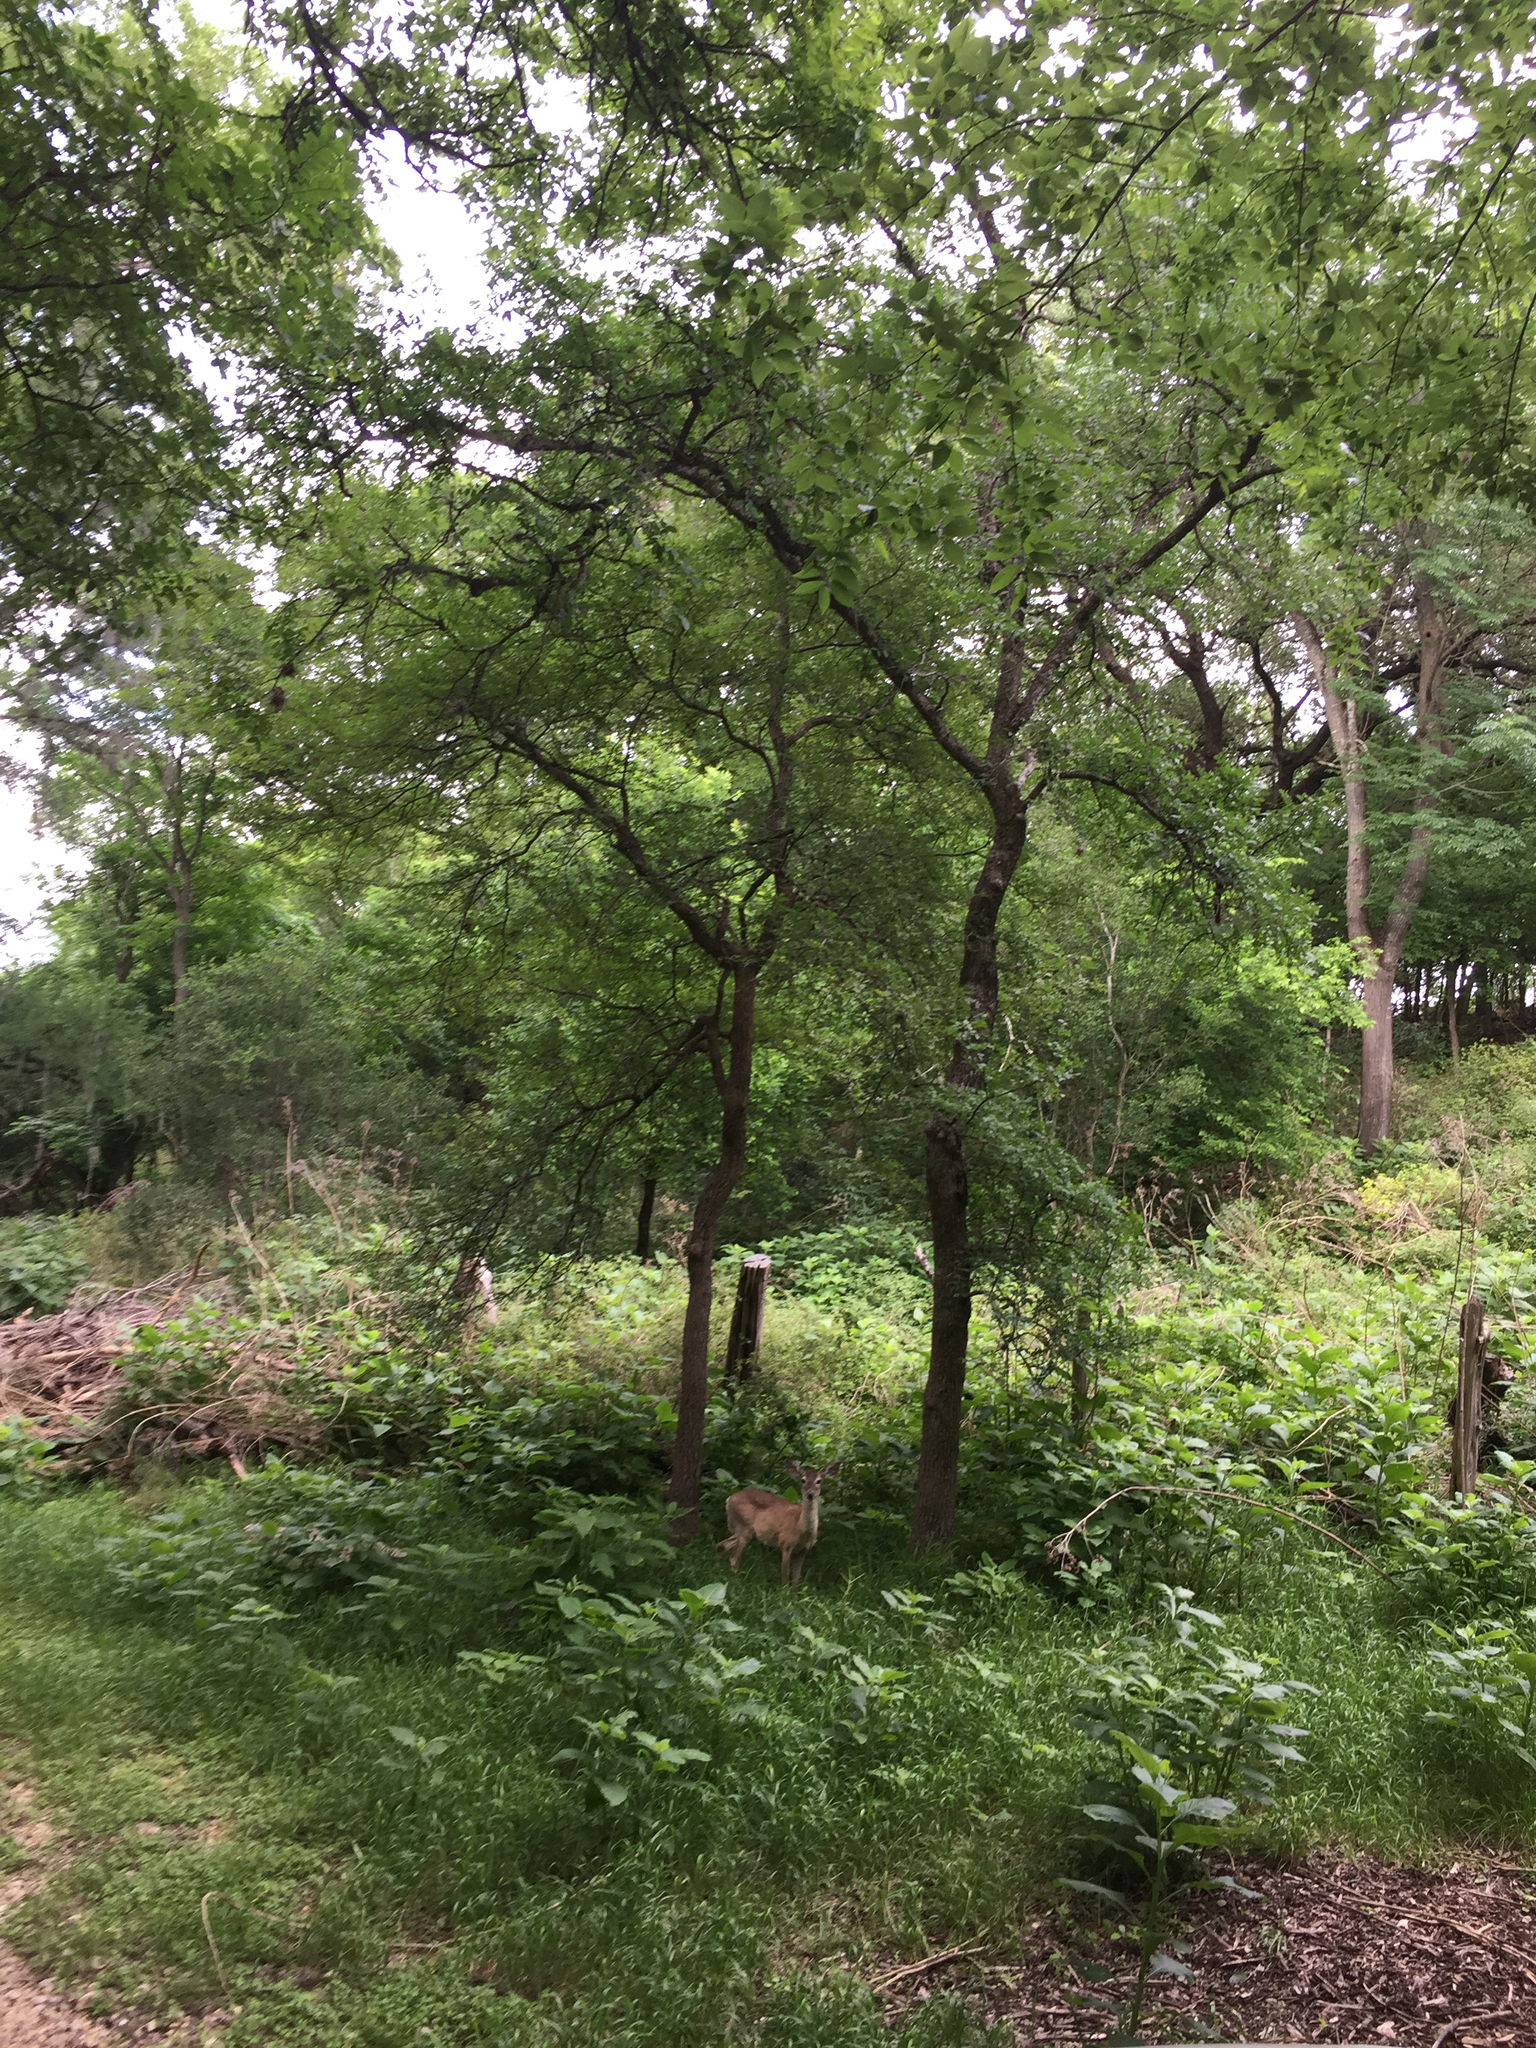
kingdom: Animalia
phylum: Chordata
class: Mammalia
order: Artiodactyla
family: Cervidae
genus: Odocoileus
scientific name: Odocoileus virginianus
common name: White-tailed deer
